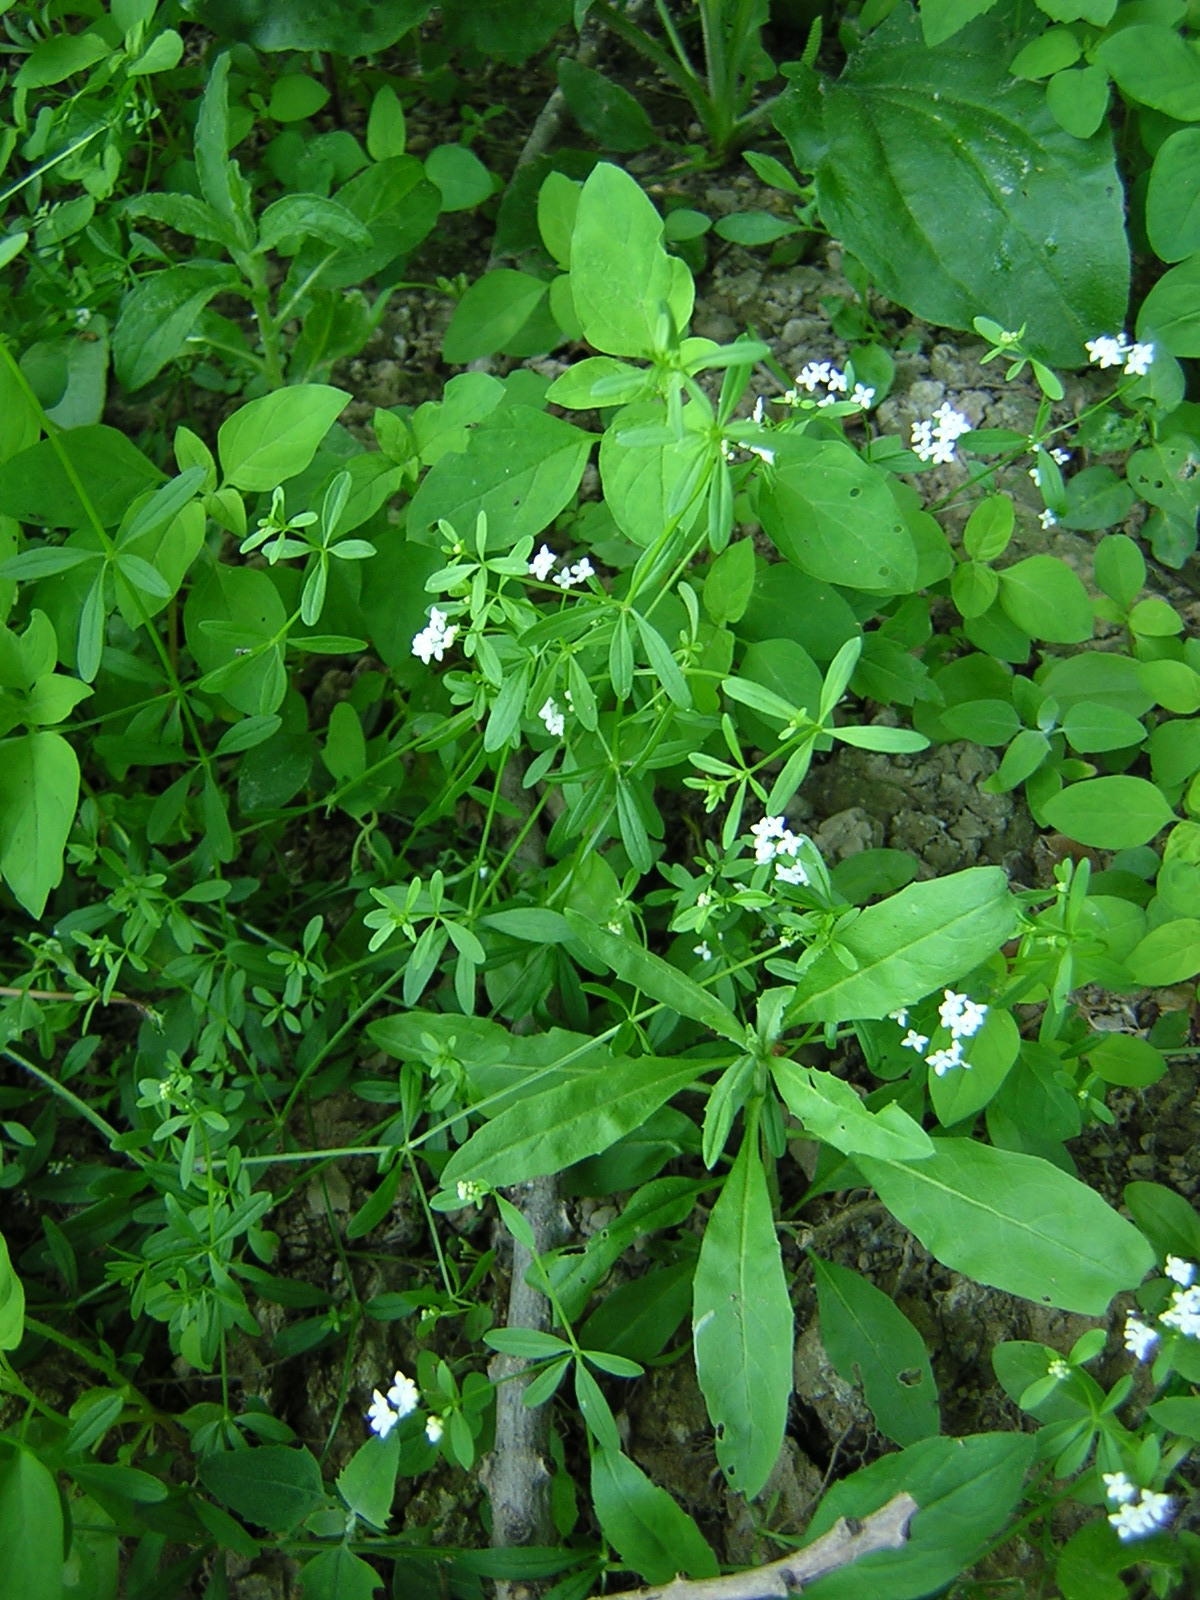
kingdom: Plantae
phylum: Tracheophyta
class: Magnoliopsida
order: Gentianales
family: Rubiaceae
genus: Galium
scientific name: Galium palustre
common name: Common marsh-bedstraw
